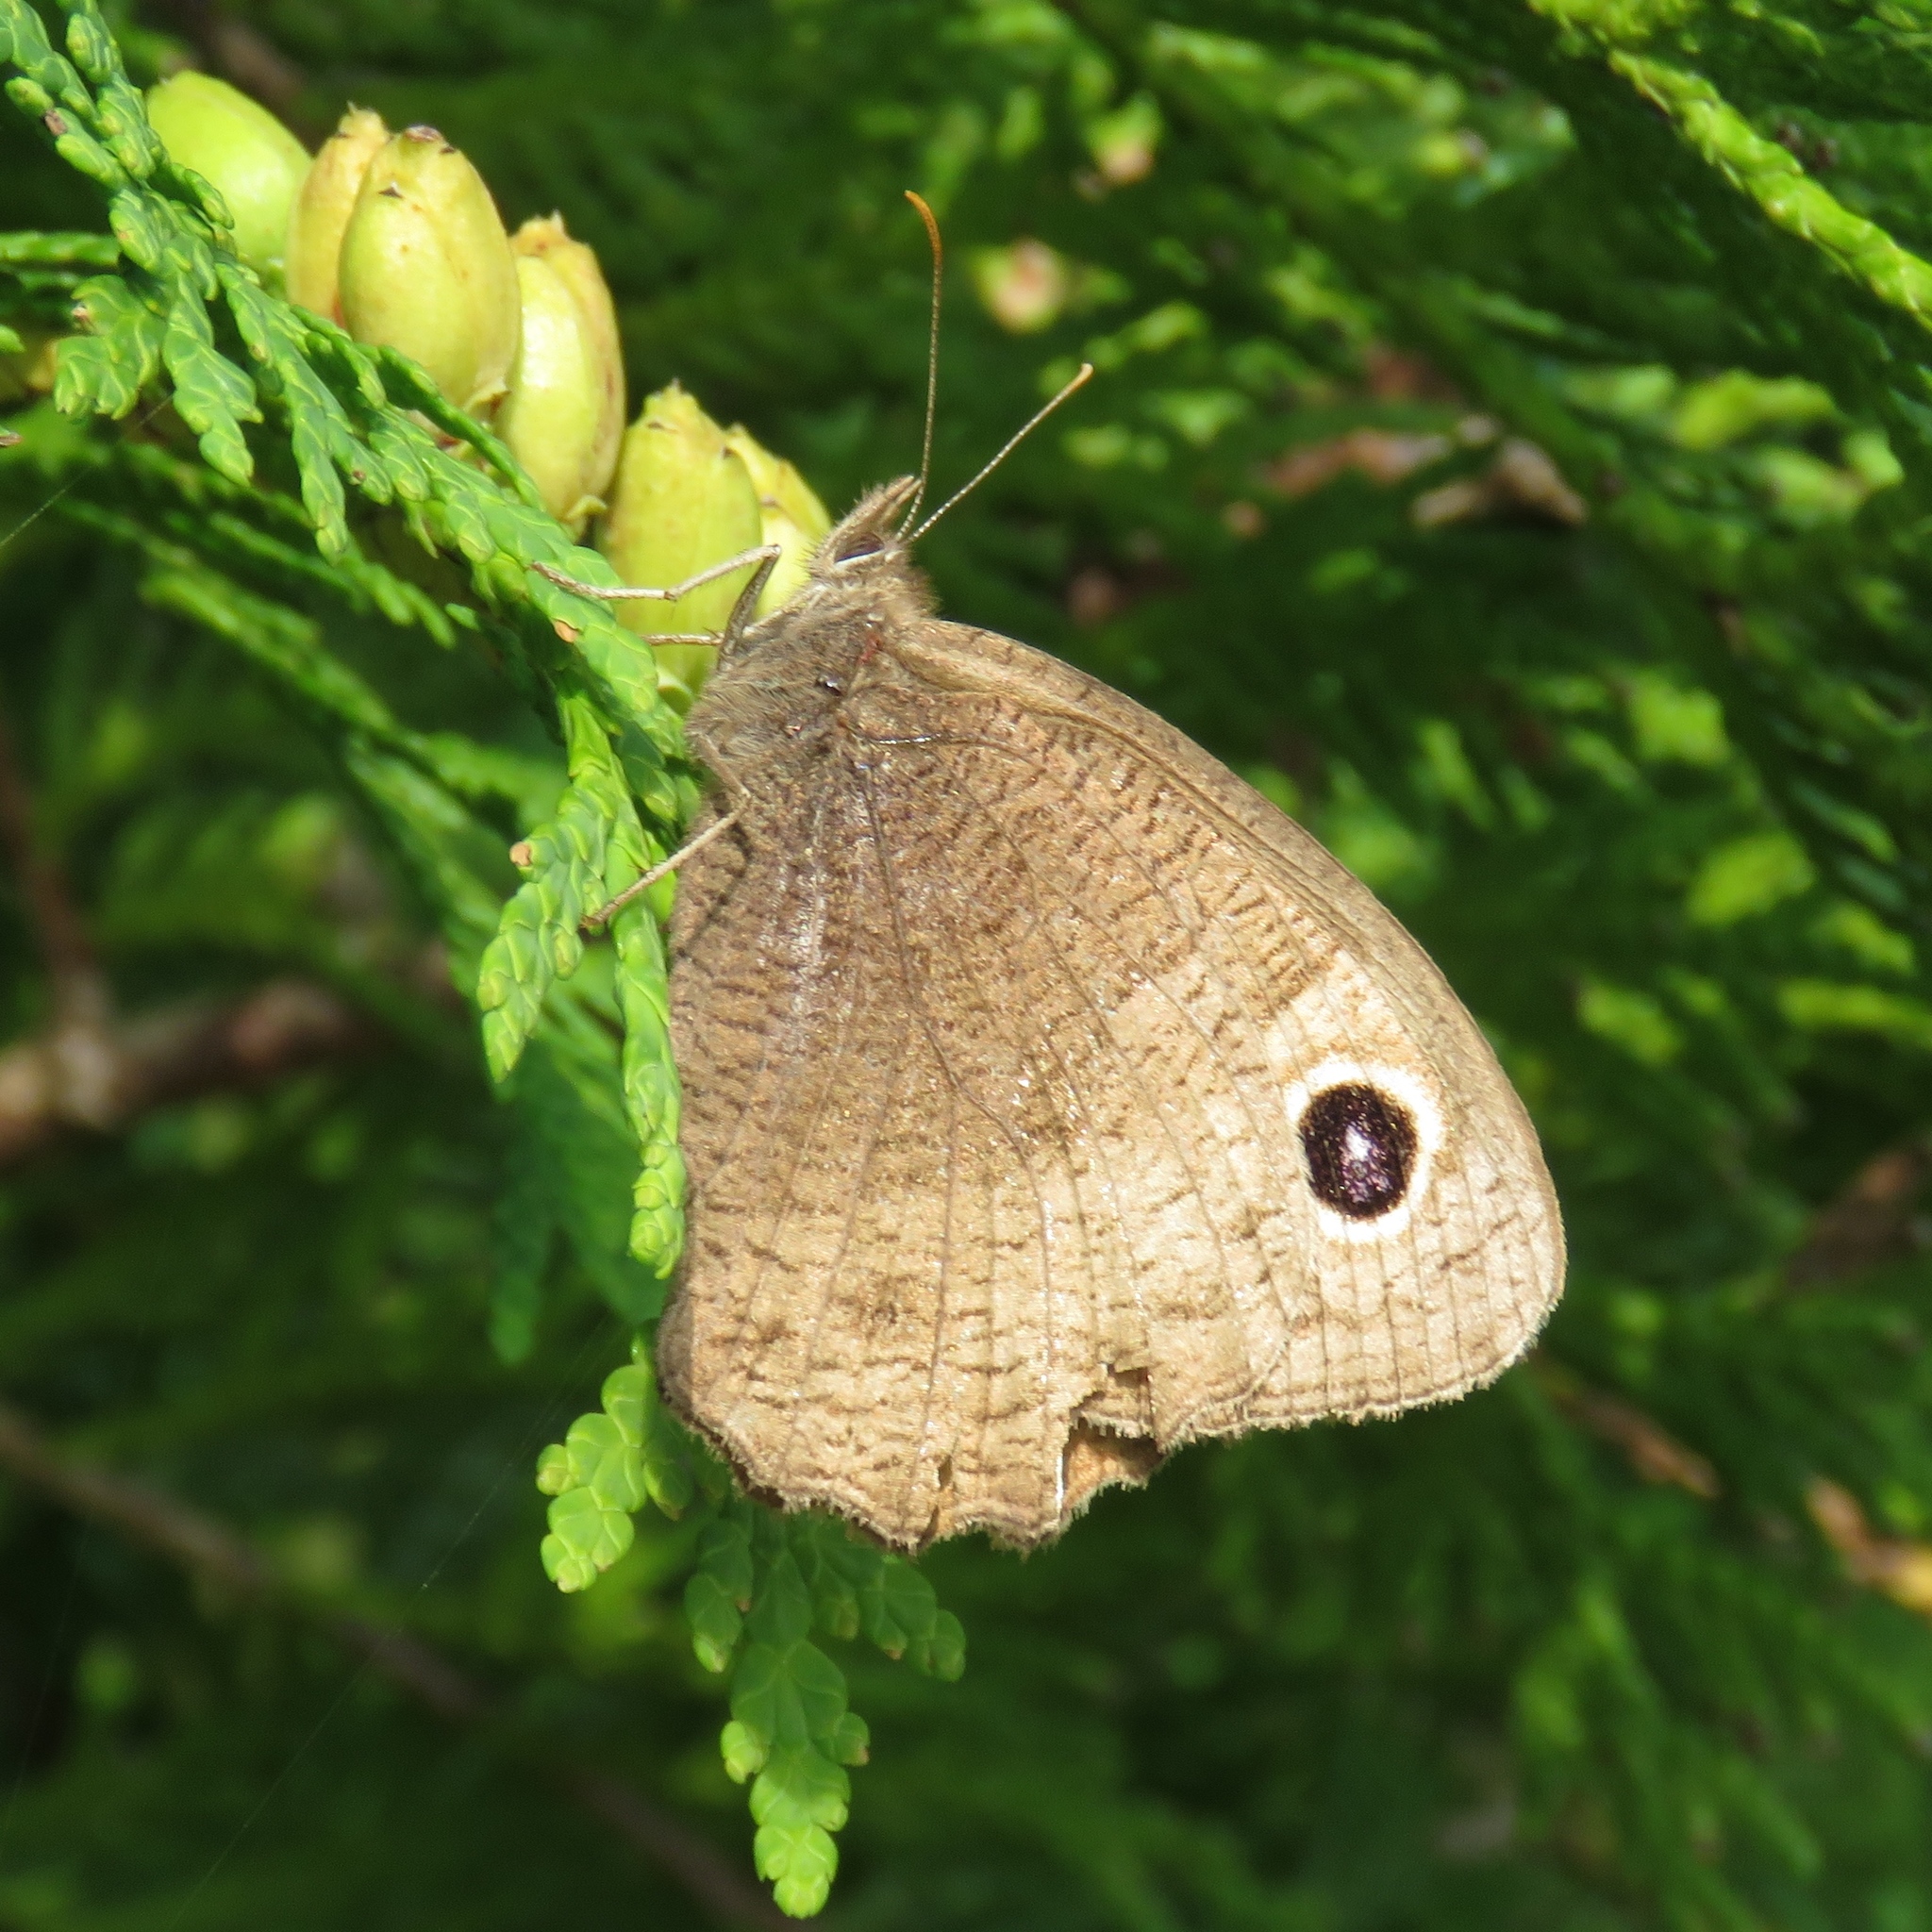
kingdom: Animalia
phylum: Arthropoda
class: Insecta
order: Lepidoptera
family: Nymphalidae
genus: Cercyonis
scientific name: Cercyonis pegala
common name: Common wood-nymph
